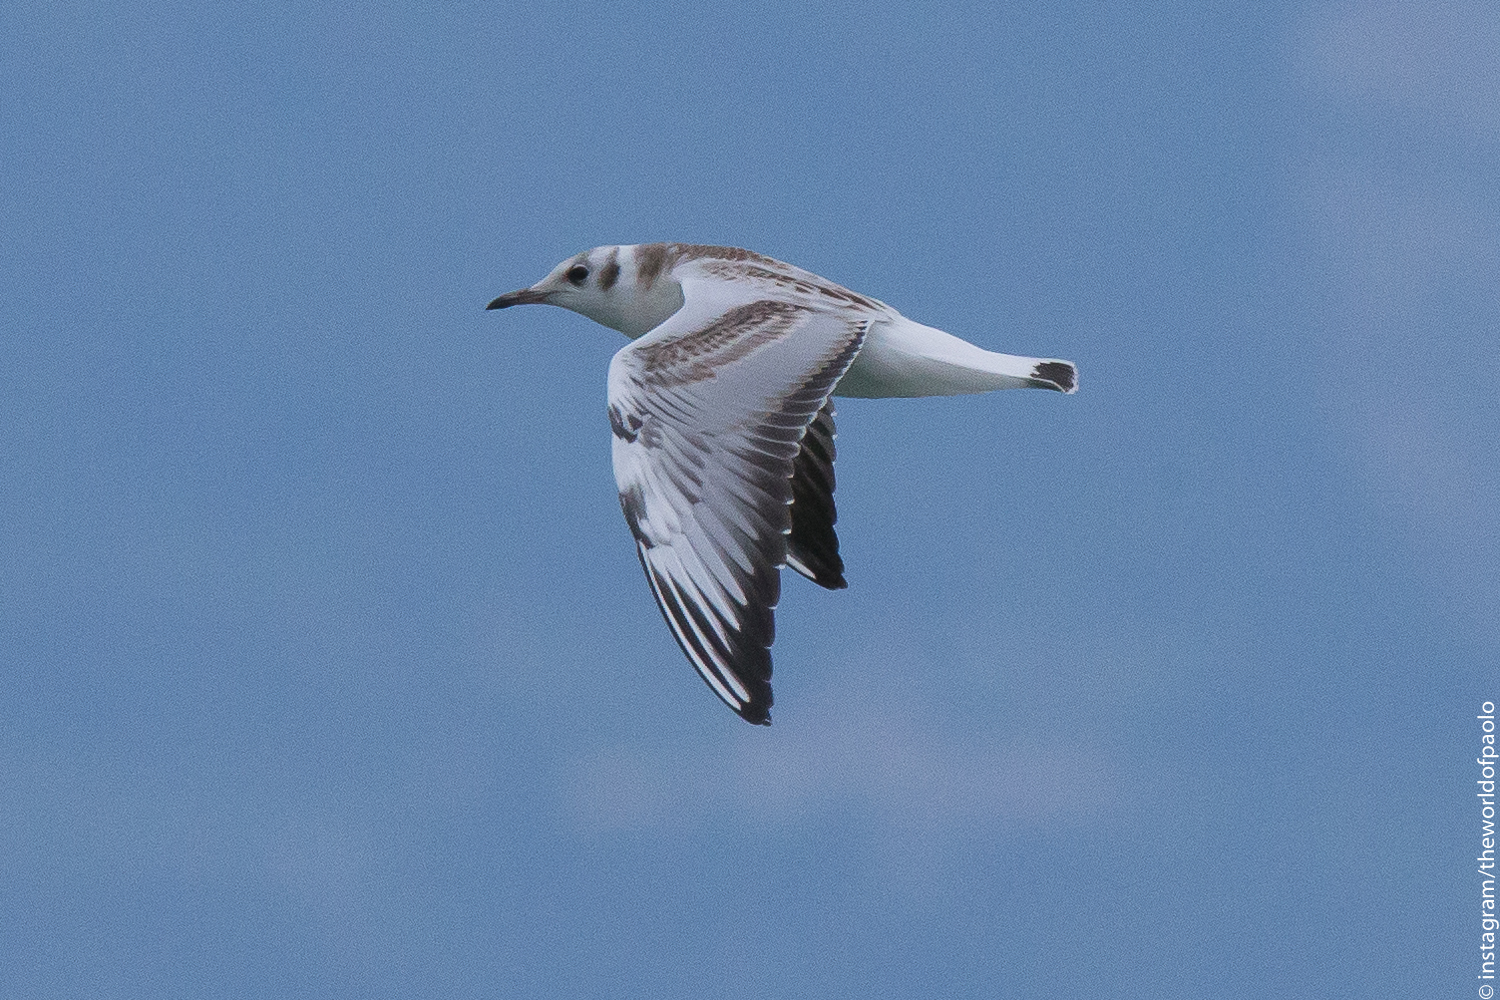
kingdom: Animalia
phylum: Chordata
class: Aves
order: Charadriiformes
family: Laridae
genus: Chroicocephalus
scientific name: Chroicocephalus ridibundus
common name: Black-headed gull
